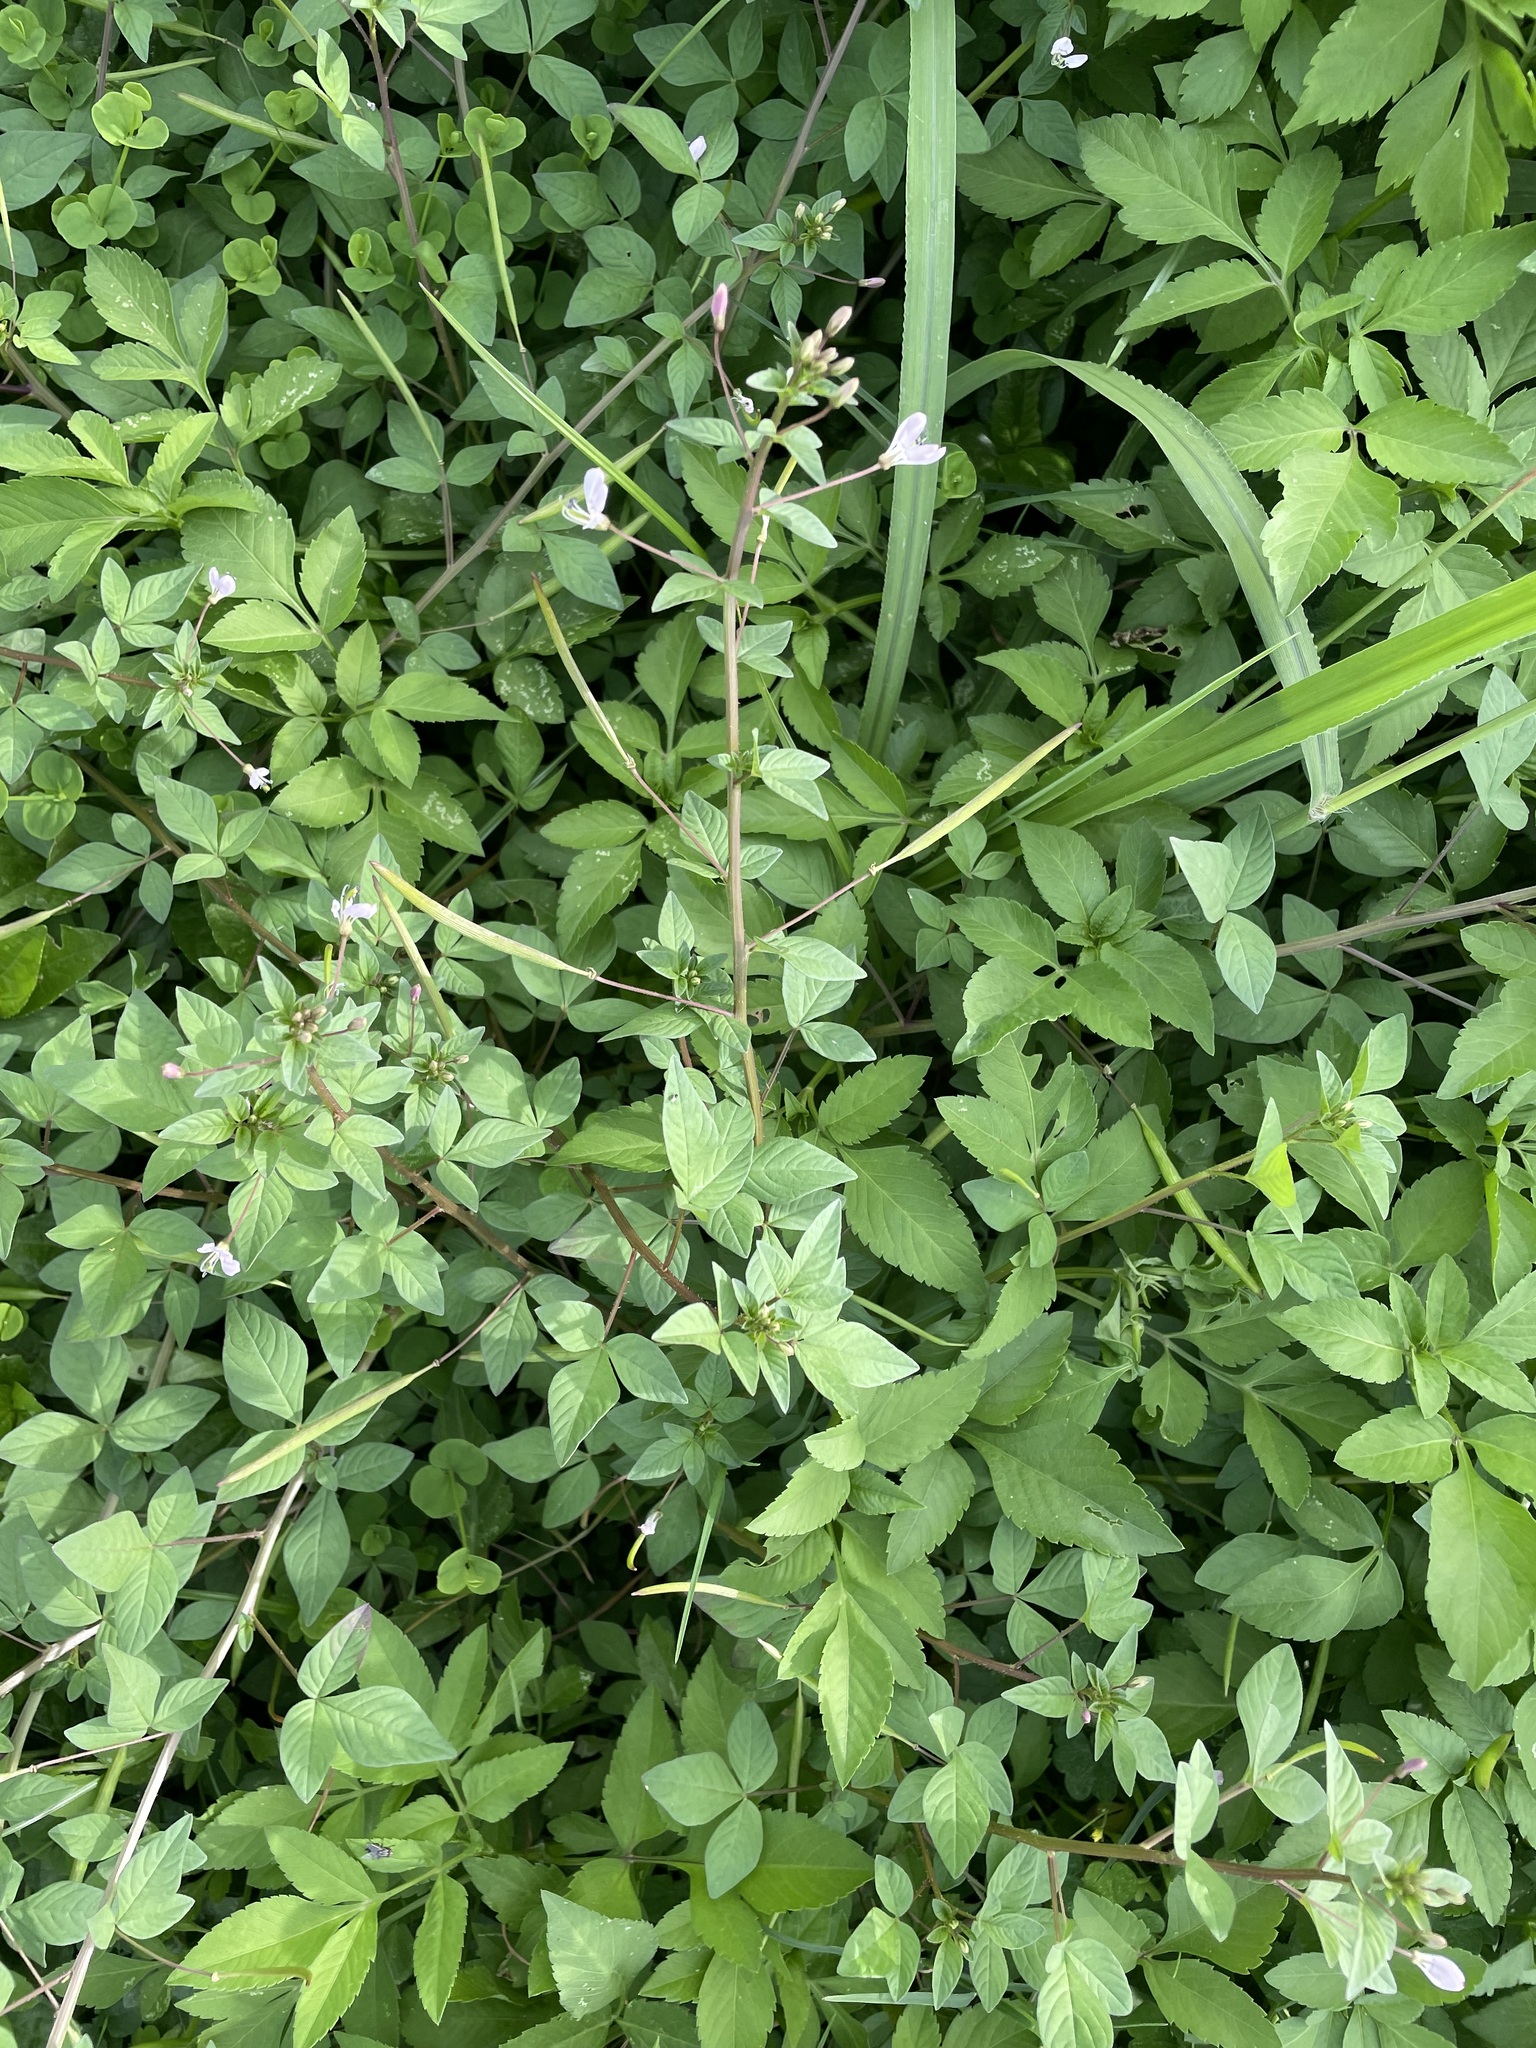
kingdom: Plantae
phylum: Tracheophyta
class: Magnoliopsida
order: Brassicales
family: Cleomaceae
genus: Sieruela
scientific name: Sieruela rutidosperma
